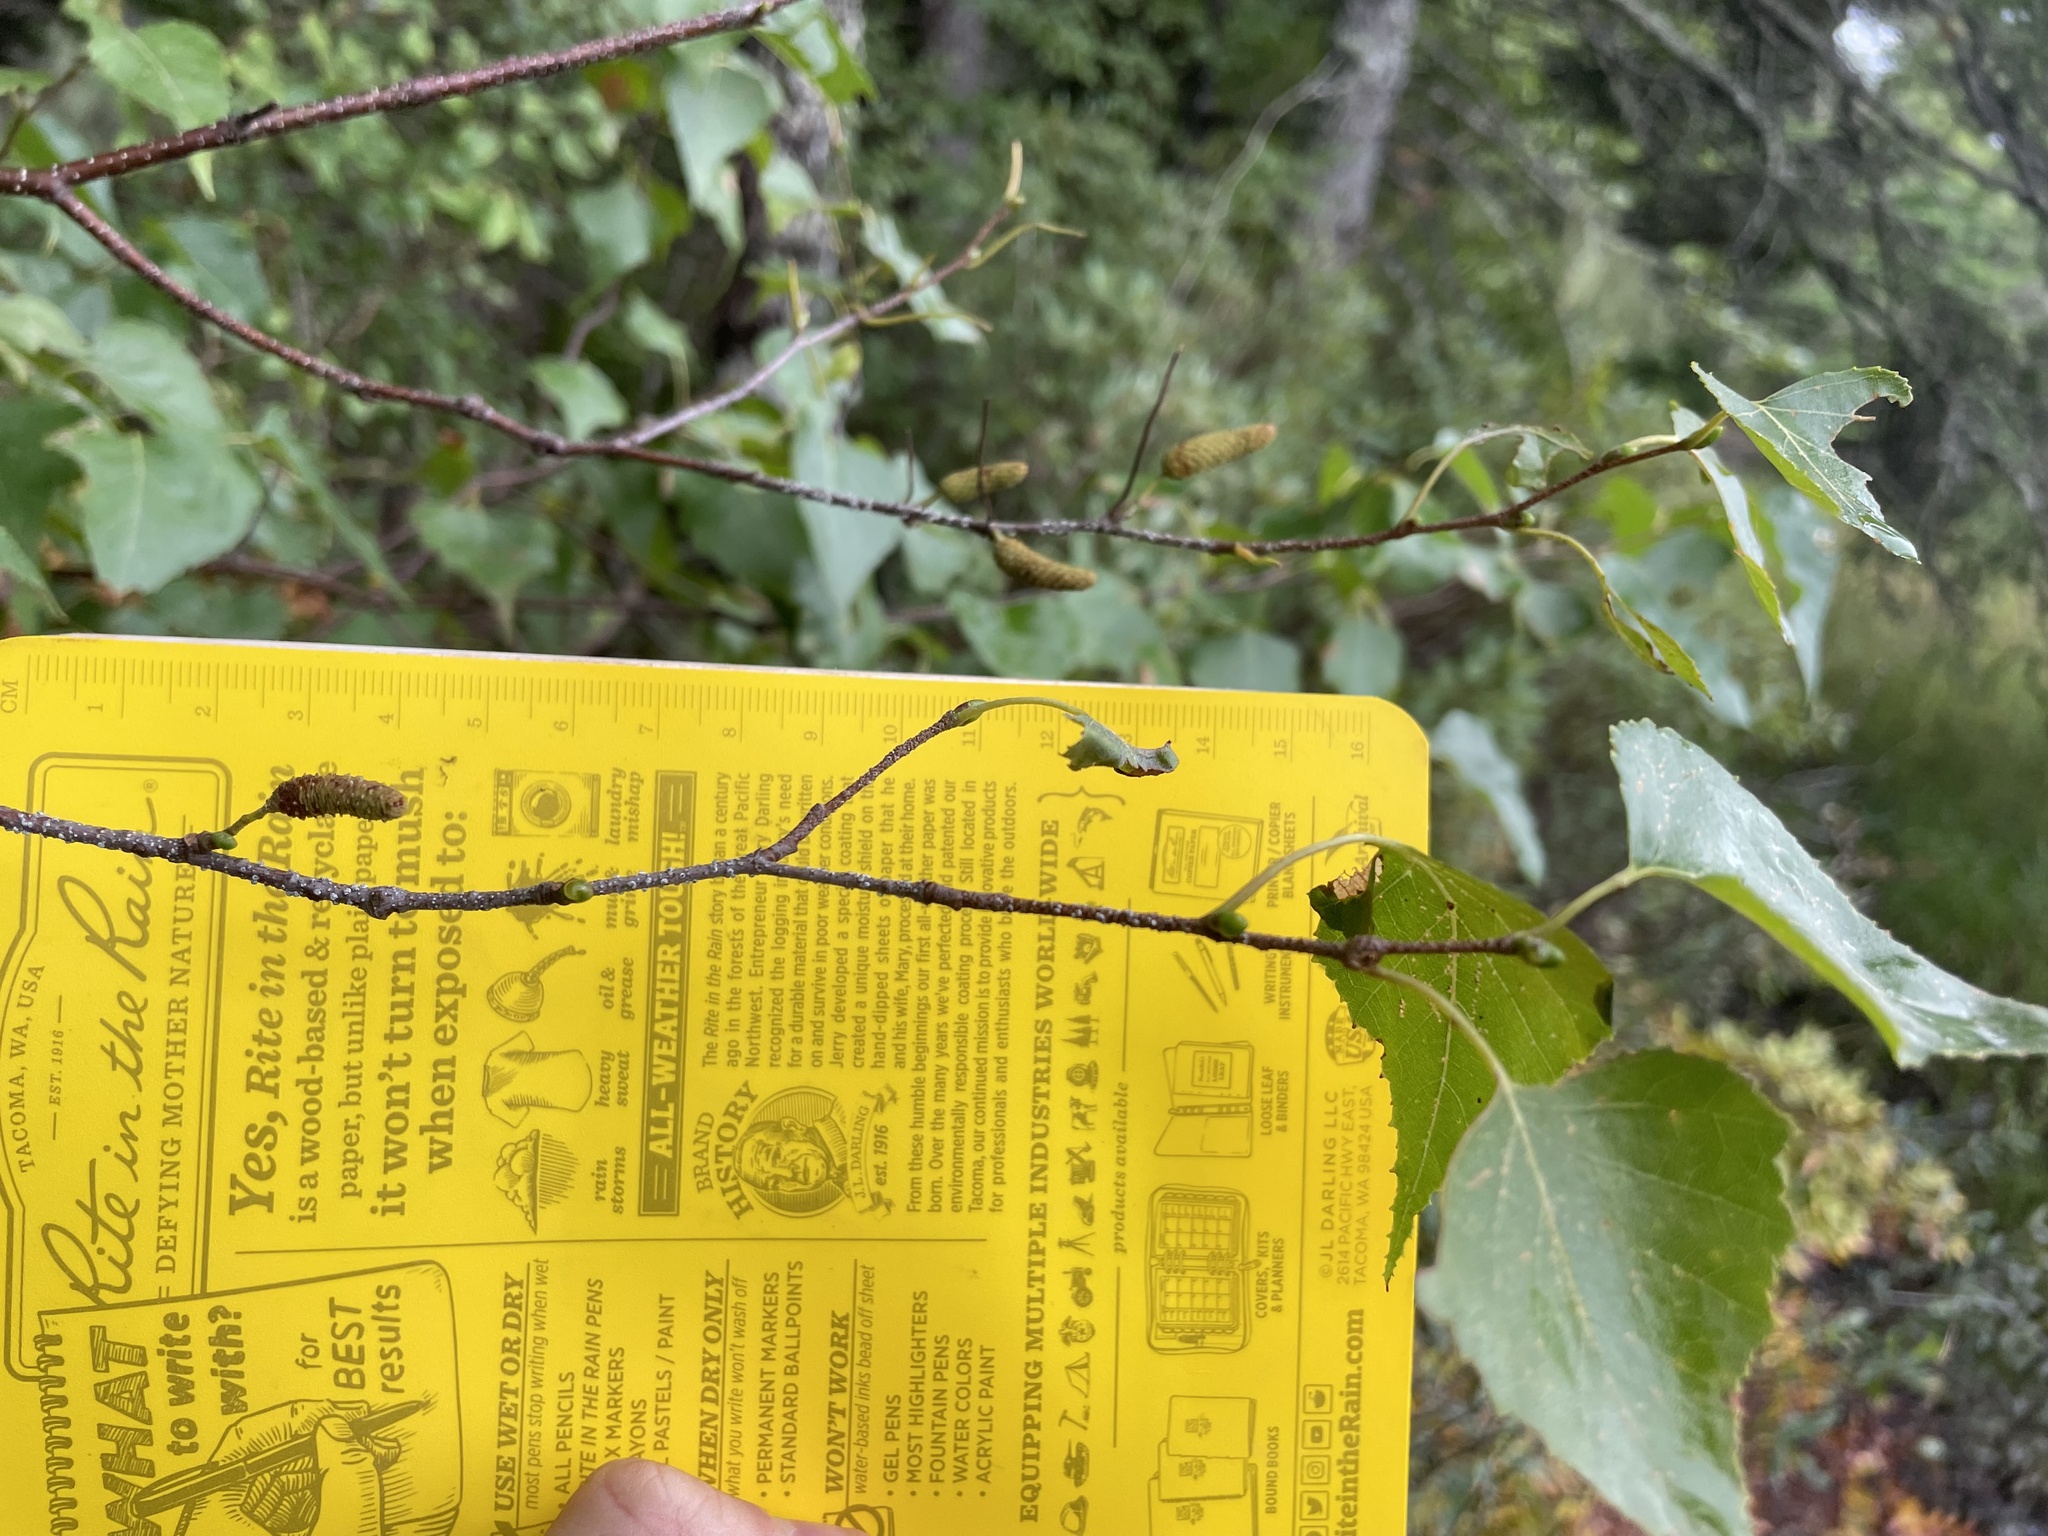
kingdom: Plantae
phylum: Tracheophyta
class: Magnoliopsida
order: Fagales
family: Betulaceae
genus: Betula
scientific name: Betula populifolia
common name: Fire birch
